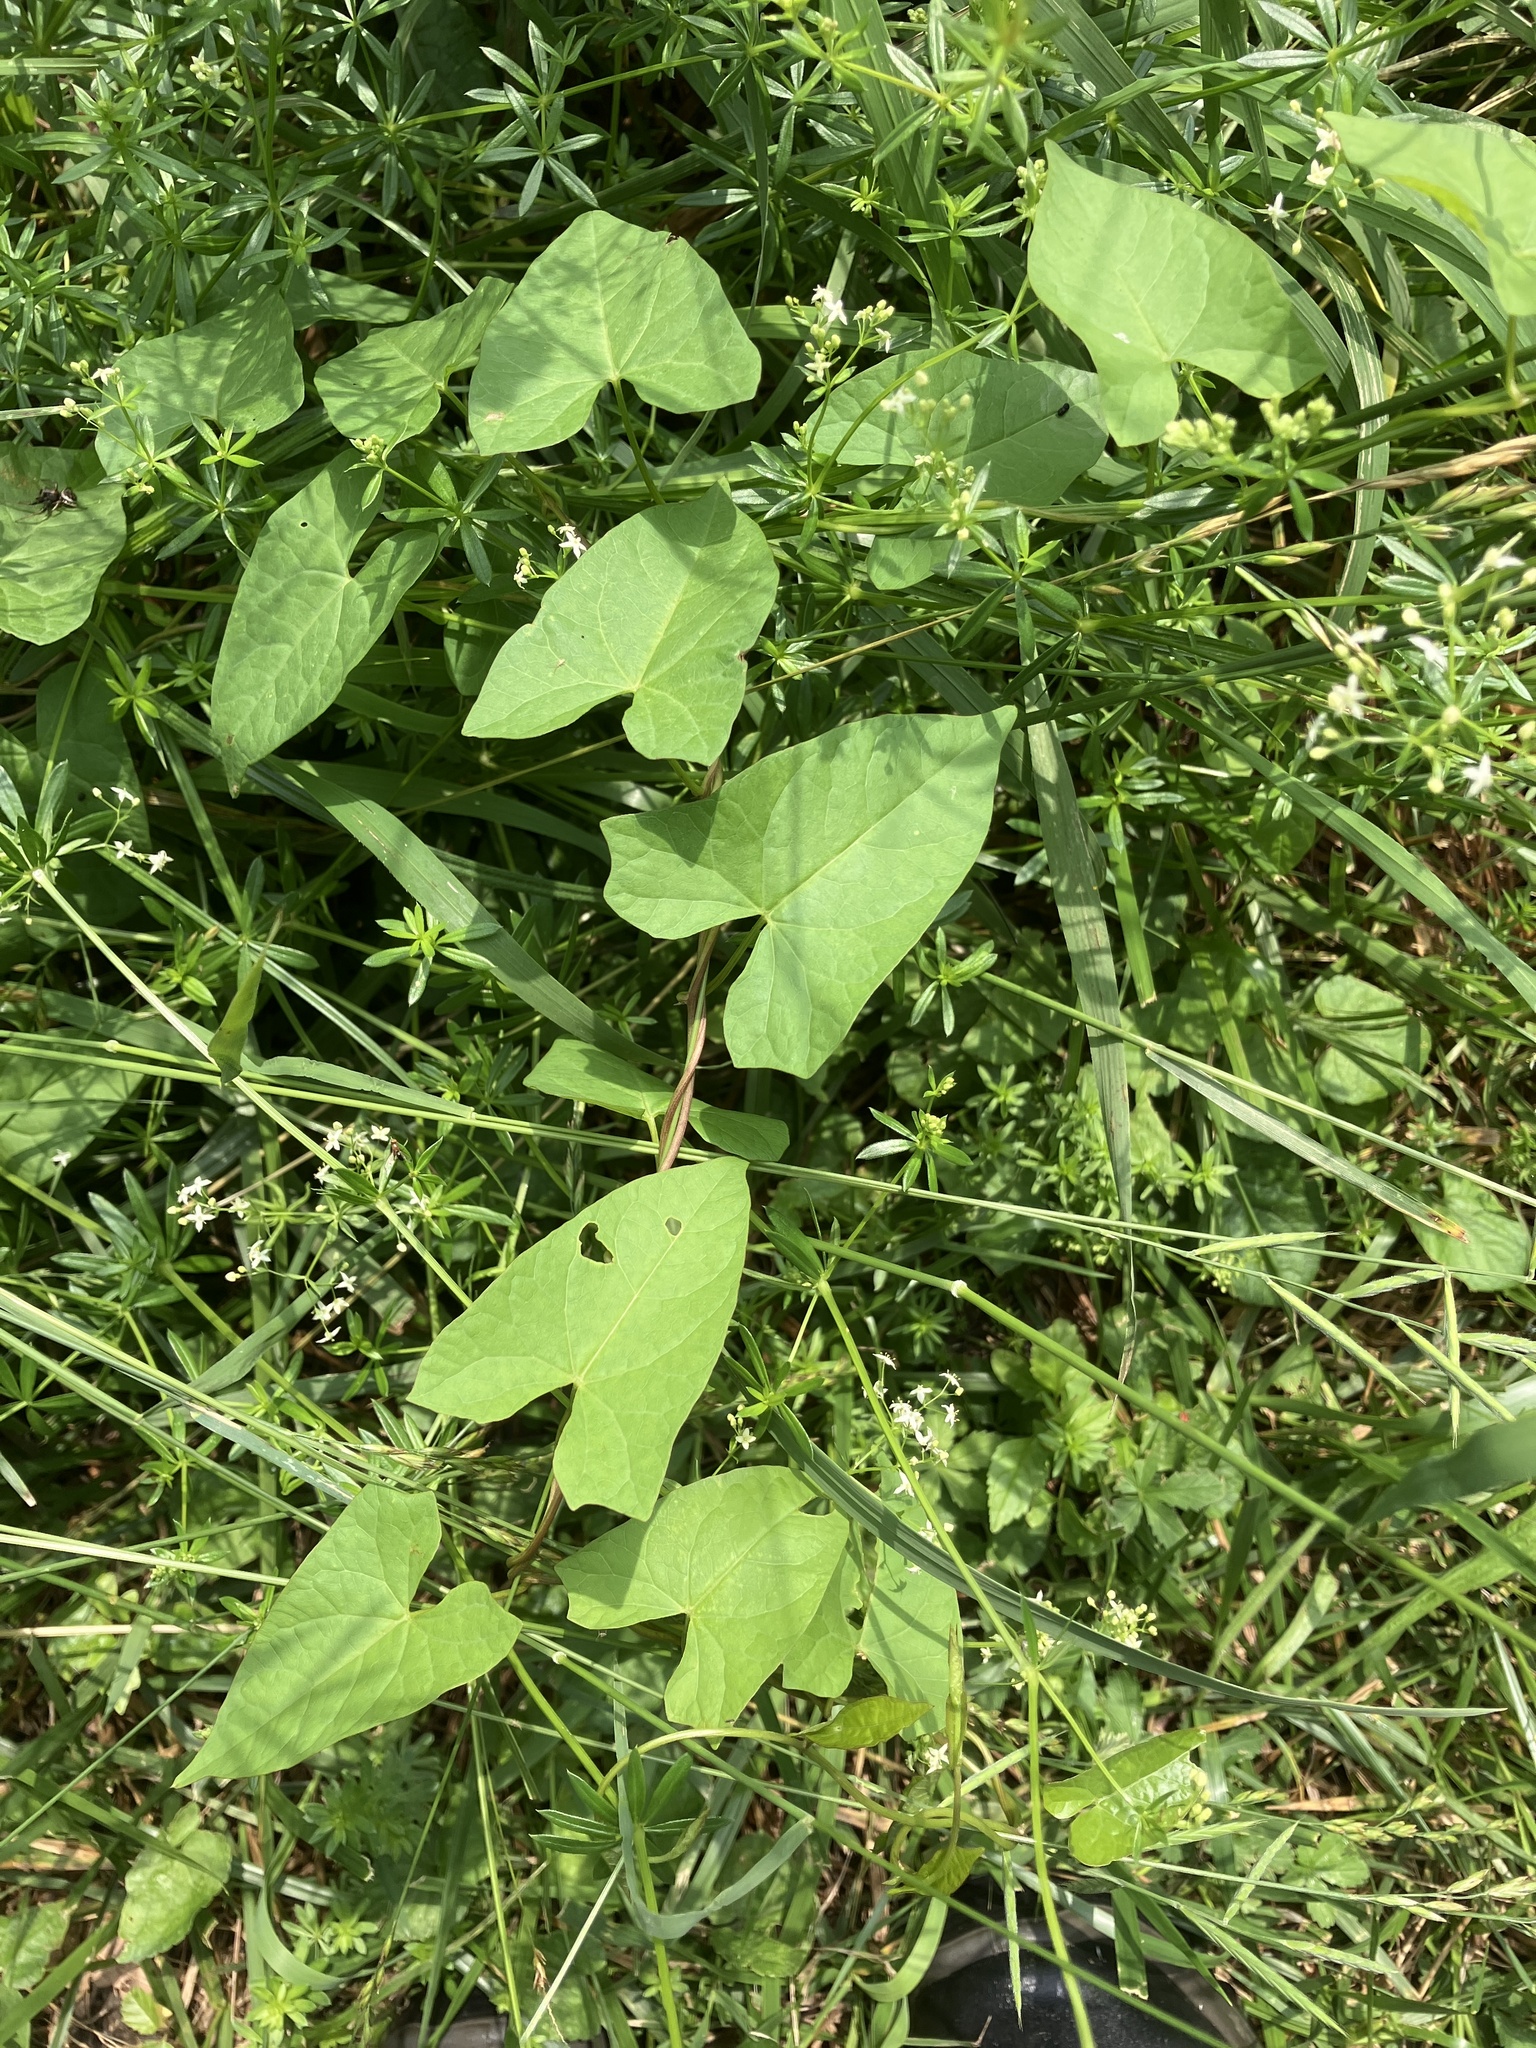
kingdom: Plantae
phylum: Tracheophyta
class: Magnoliopsida
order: Solanales
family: Convolvulaceae
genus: Calystegia
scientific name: Calystegia sepium
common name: Hedge bindweed
